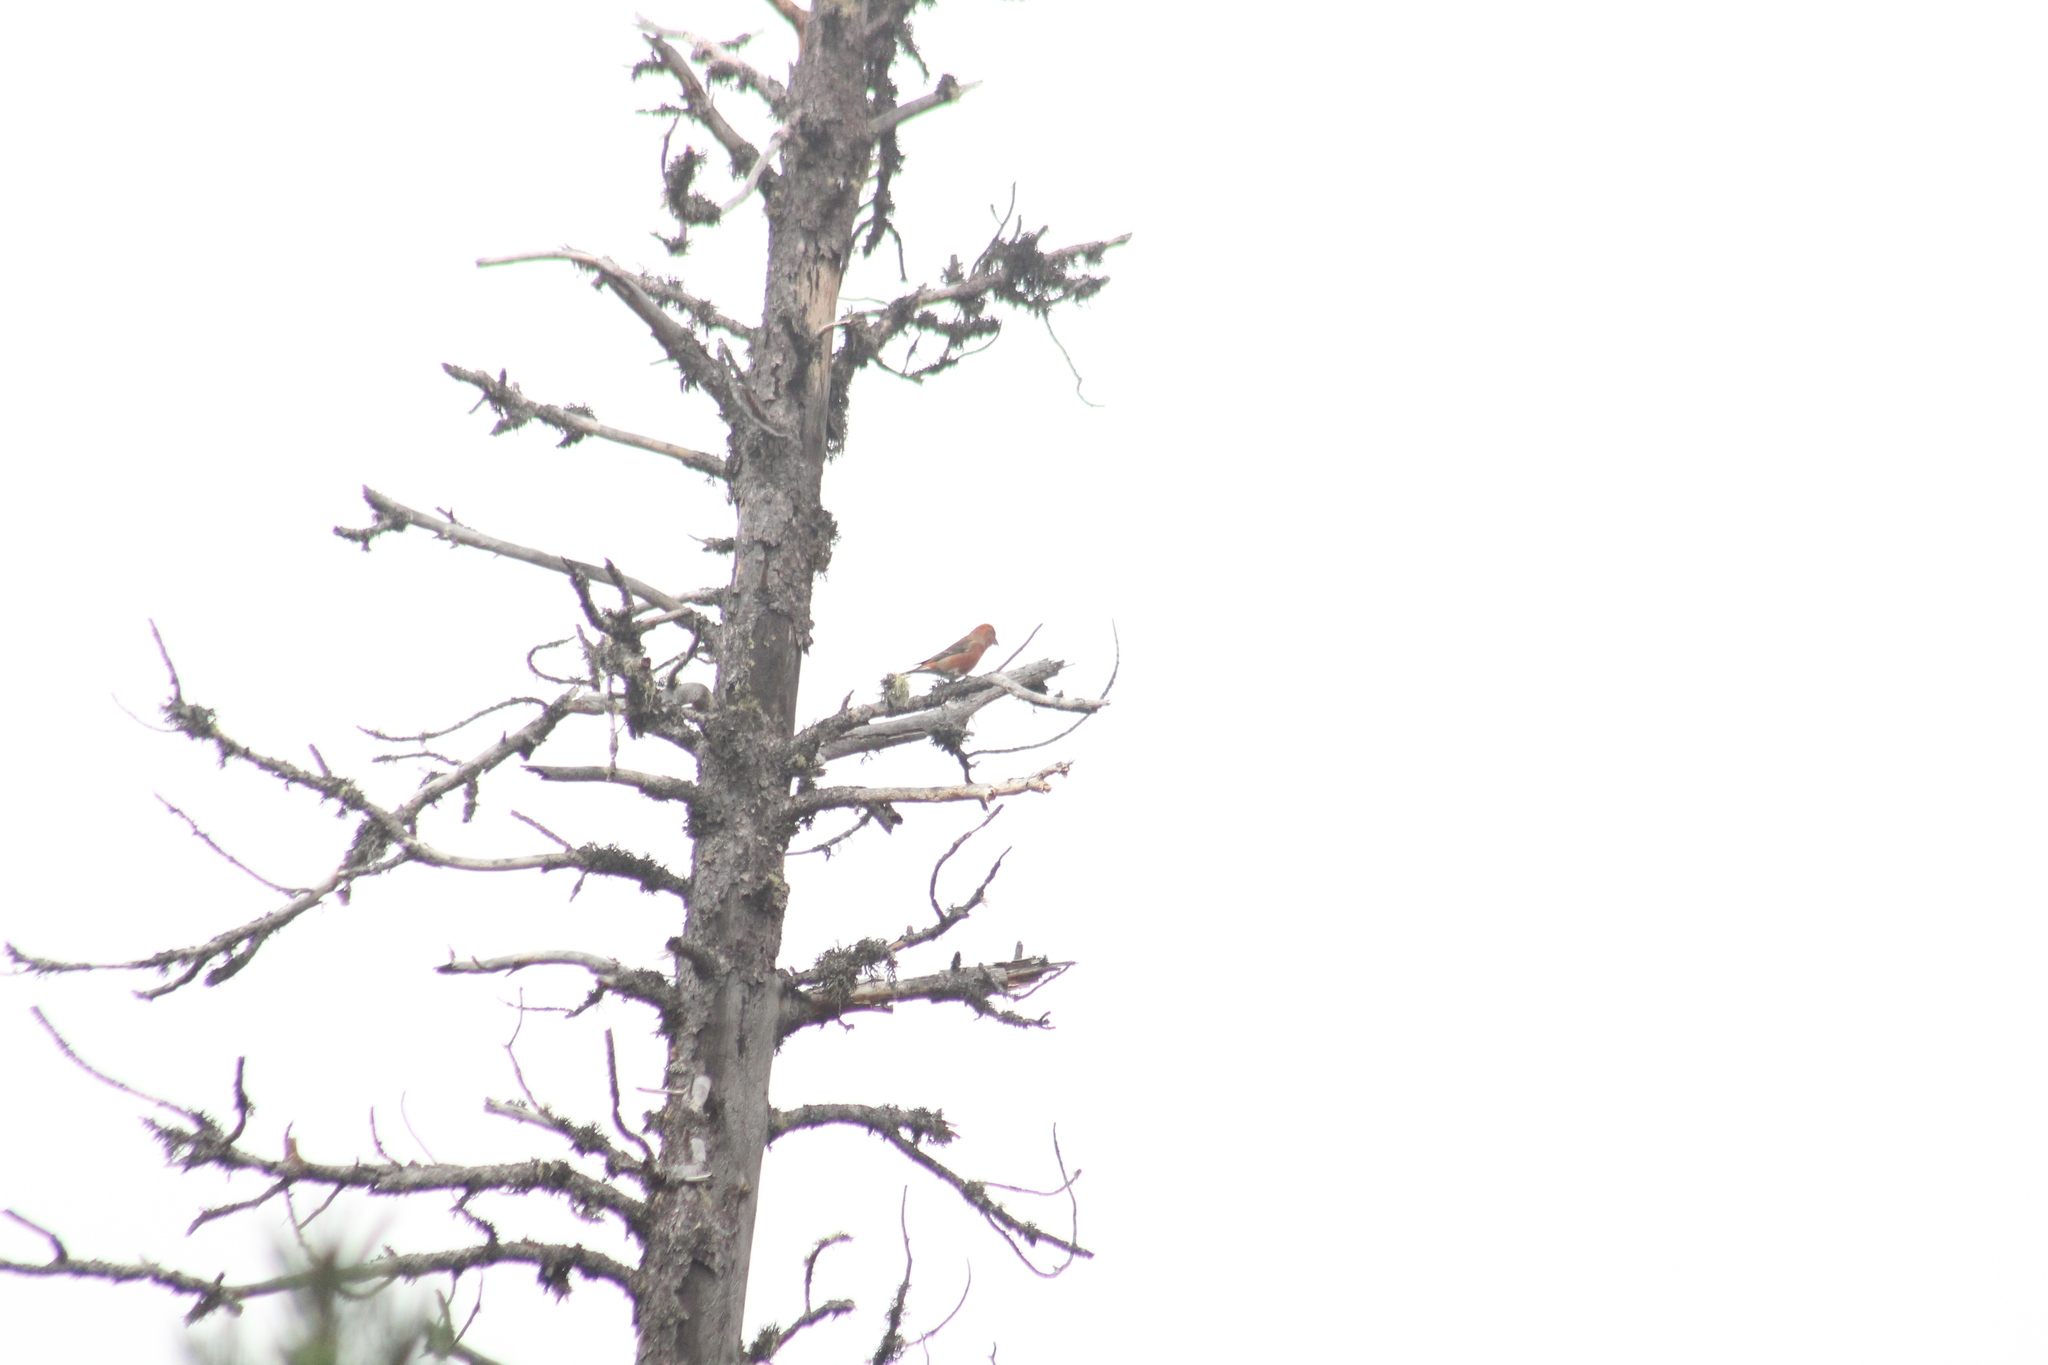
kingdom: Animalia
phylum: Chordata
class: Aves
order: Passeriformes
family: Fringillidae
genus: Loxia
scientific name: Loxia curvirostra
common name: Red crossbill
